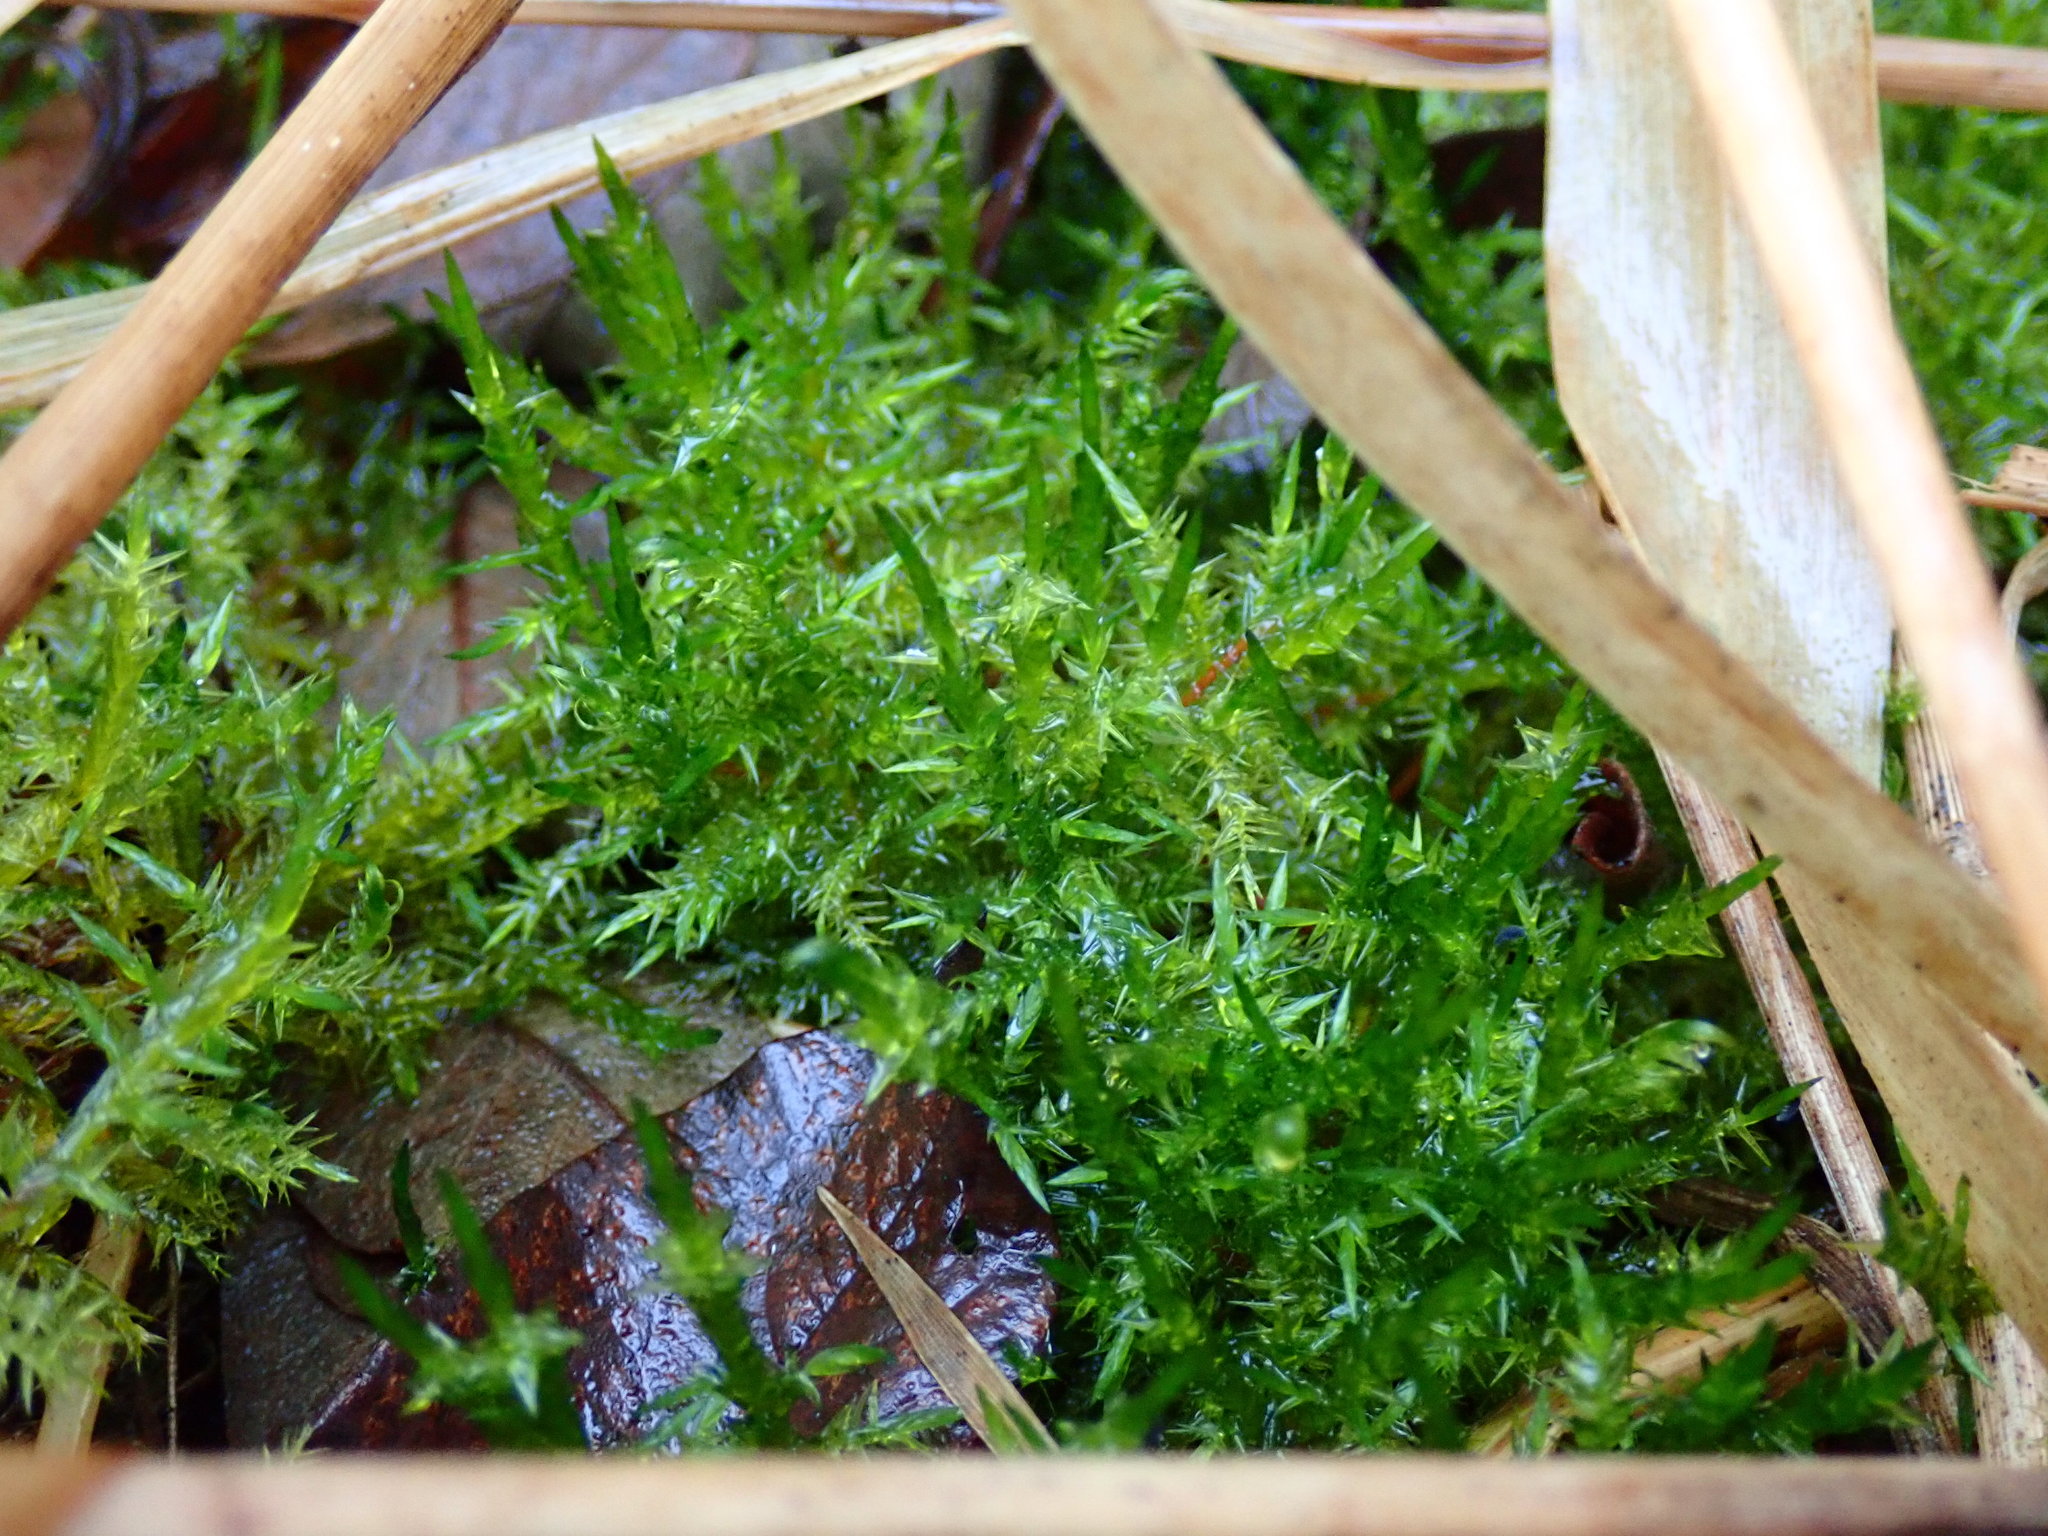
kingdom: Plantae
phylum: Bryophyta
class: Bryopsida
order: Hypnales
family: Pylaisiaceae
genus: Calliergonella
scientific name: Calliergonella cuspidata
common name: Common large wetland moss
